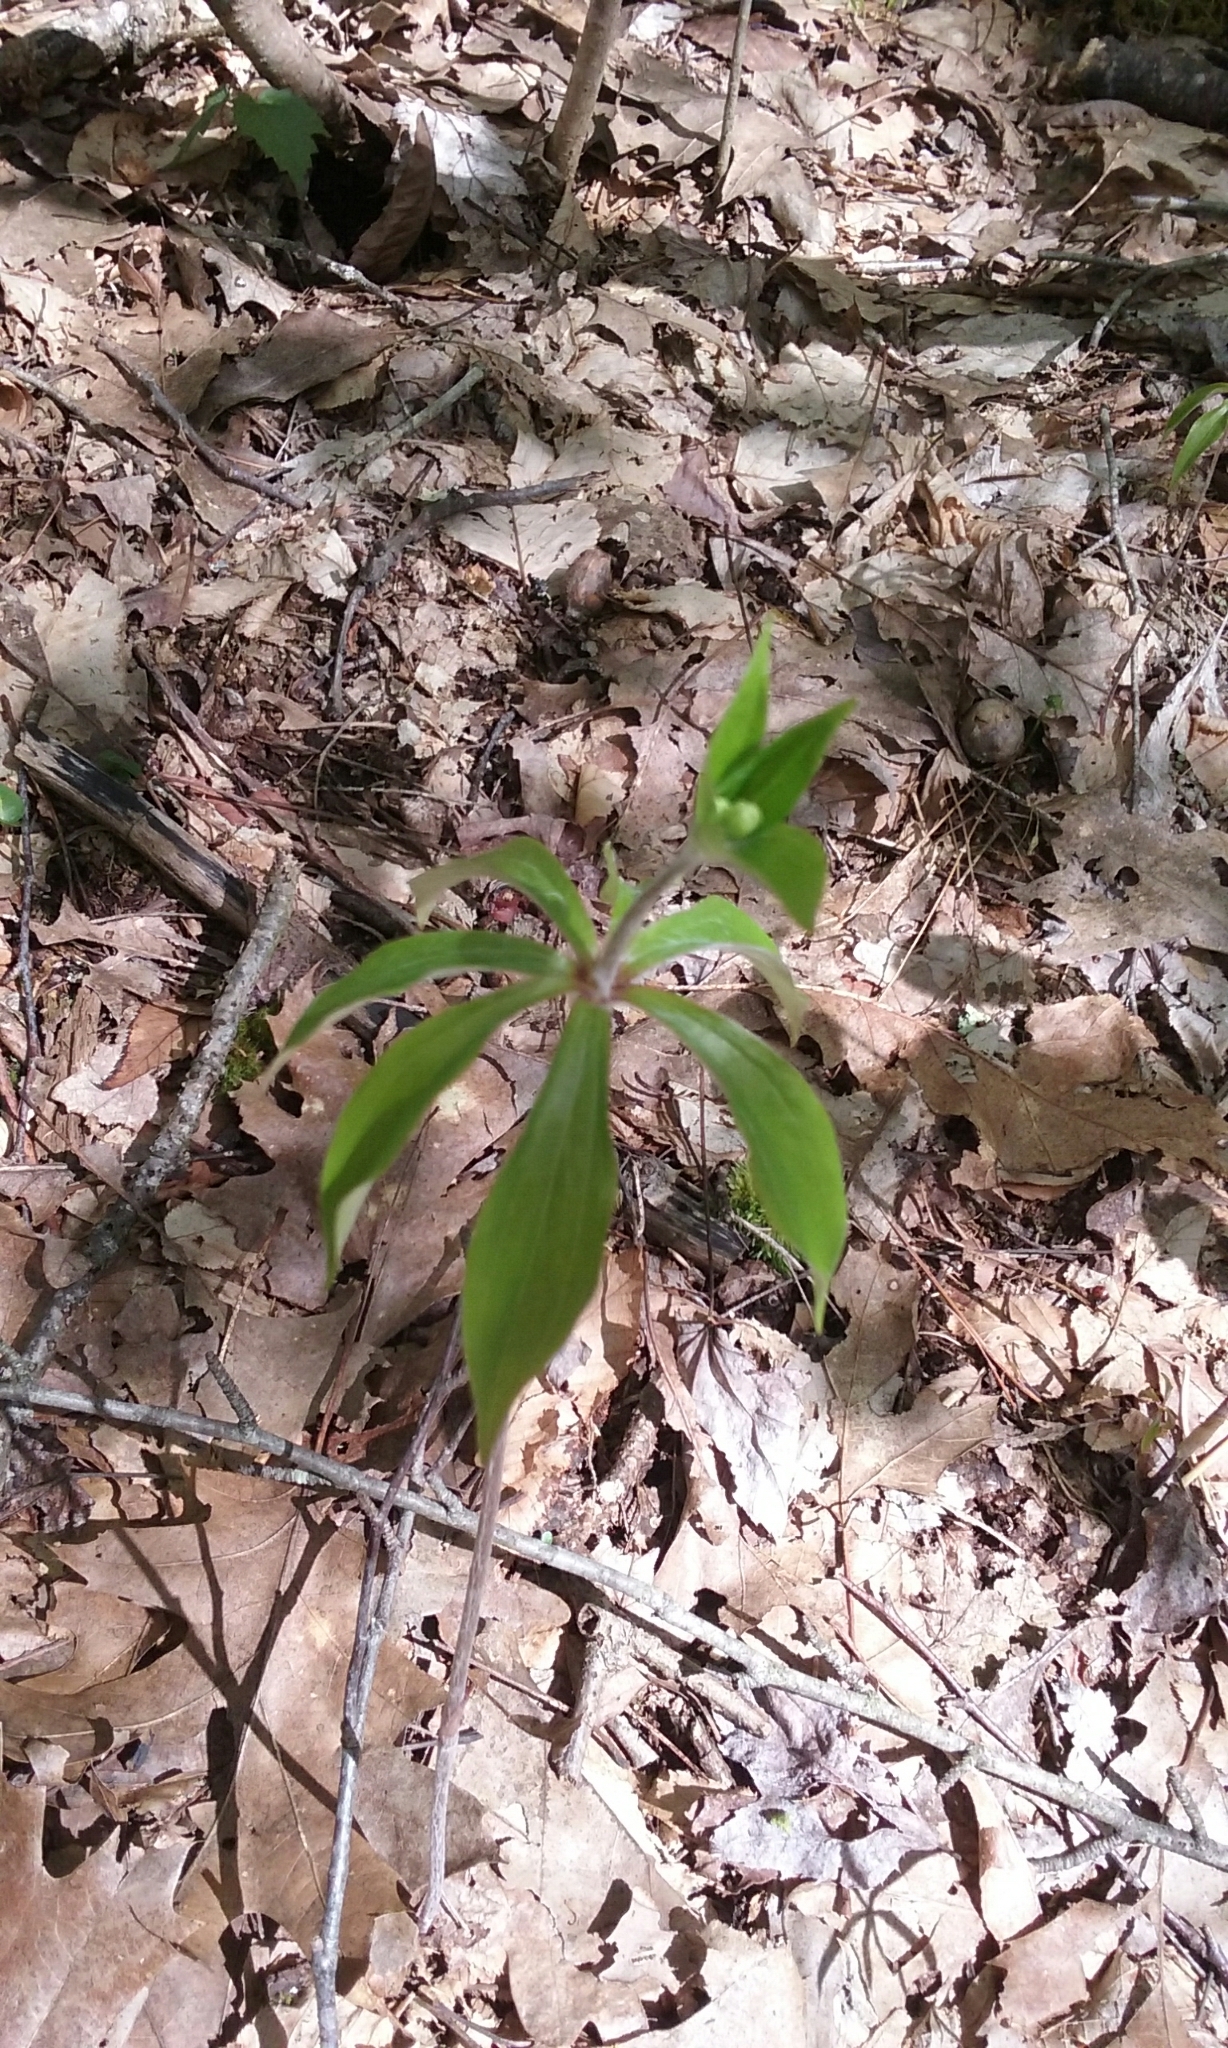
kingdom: Plantae
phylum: Tracheophyta
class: Liliopsida
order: Liliales
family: Liliaceae
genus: Medeola
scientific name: Medeola virginiana
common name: Indian cucumber-root
